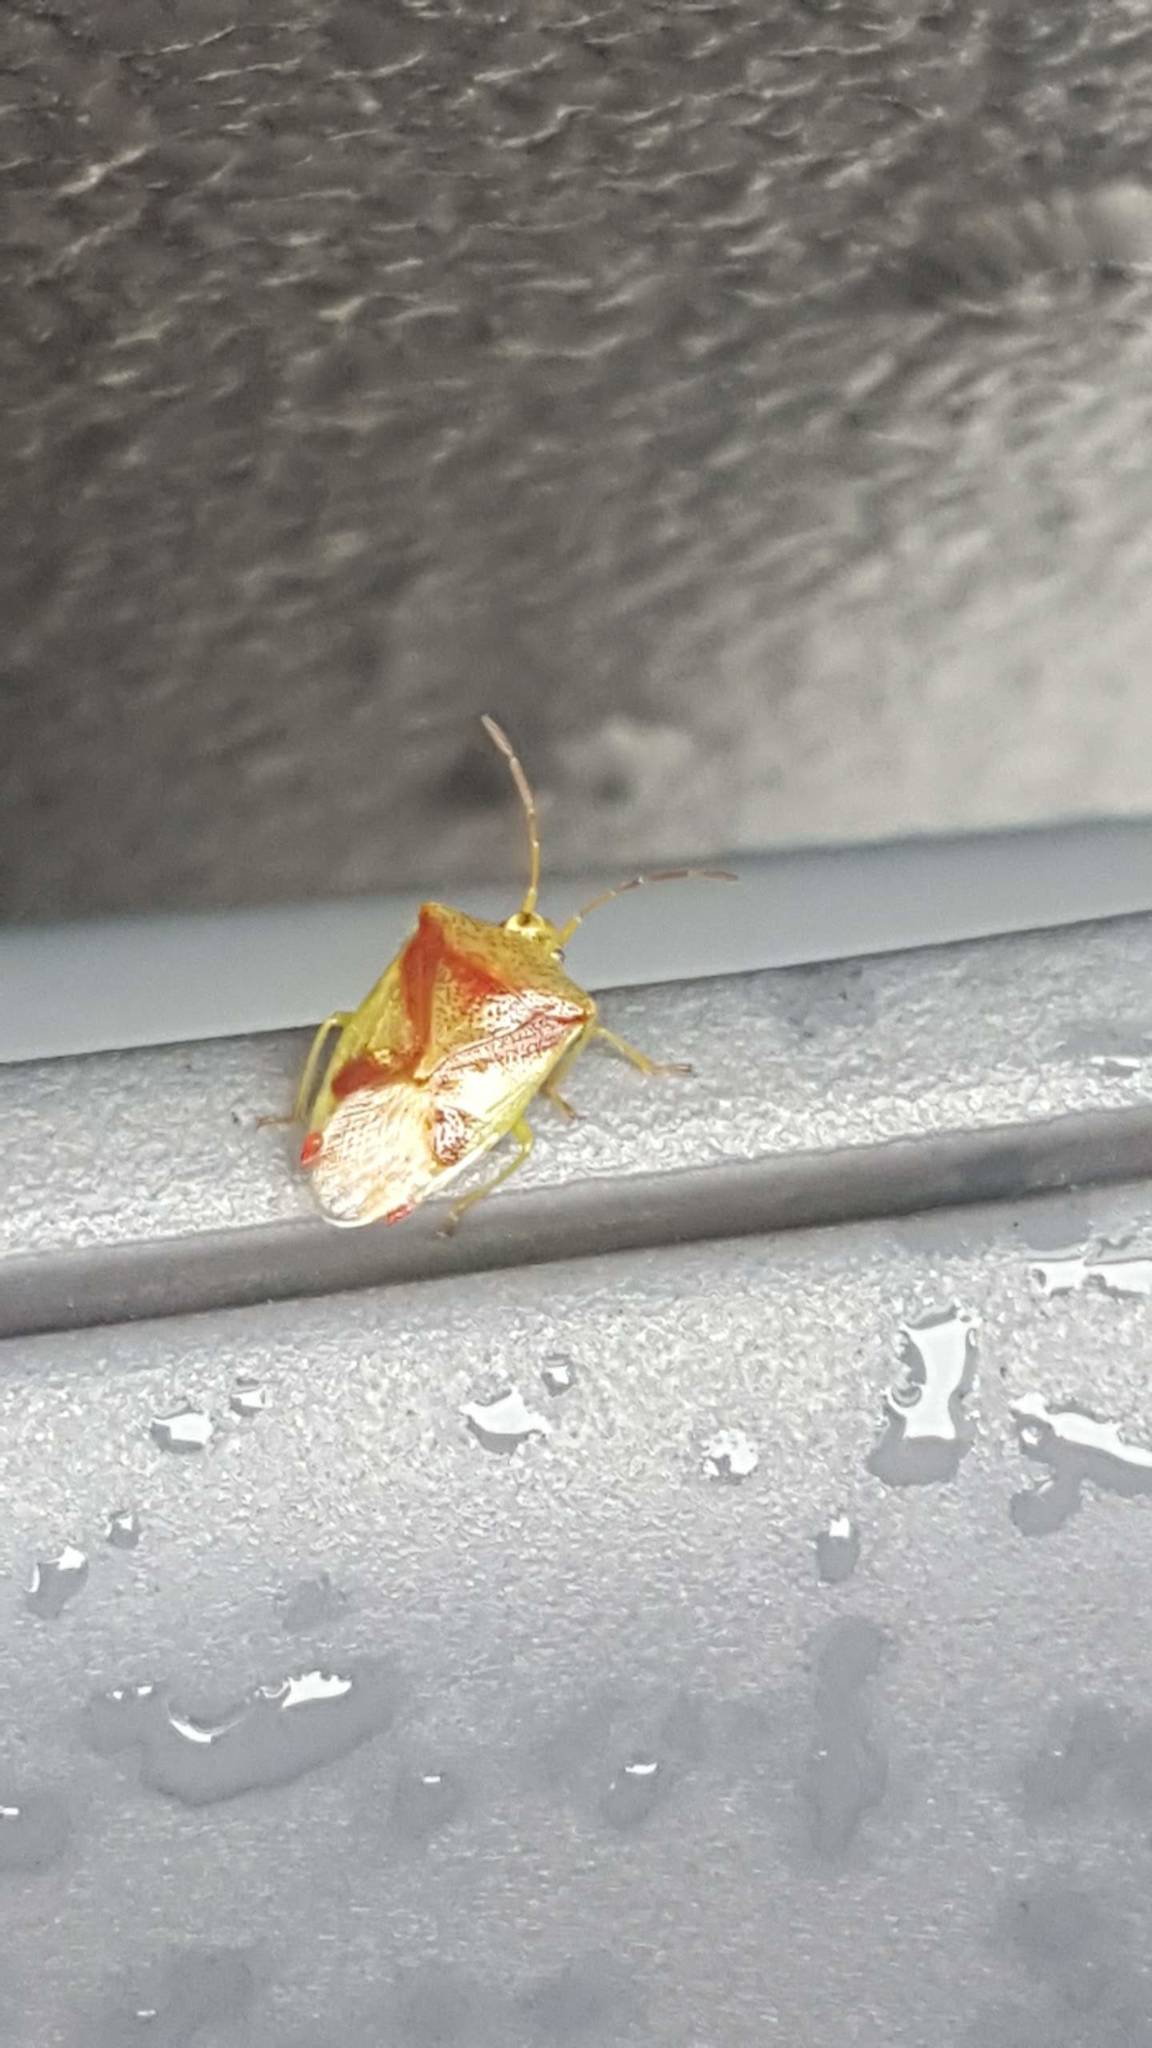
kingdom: Animalia
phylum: Arthropoda
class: Insecta
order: Hemiptera
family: Acanthosomatidae
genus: Elasmostethus
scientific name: Elasmostethus cruciatus
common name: Red-cross shield bug
